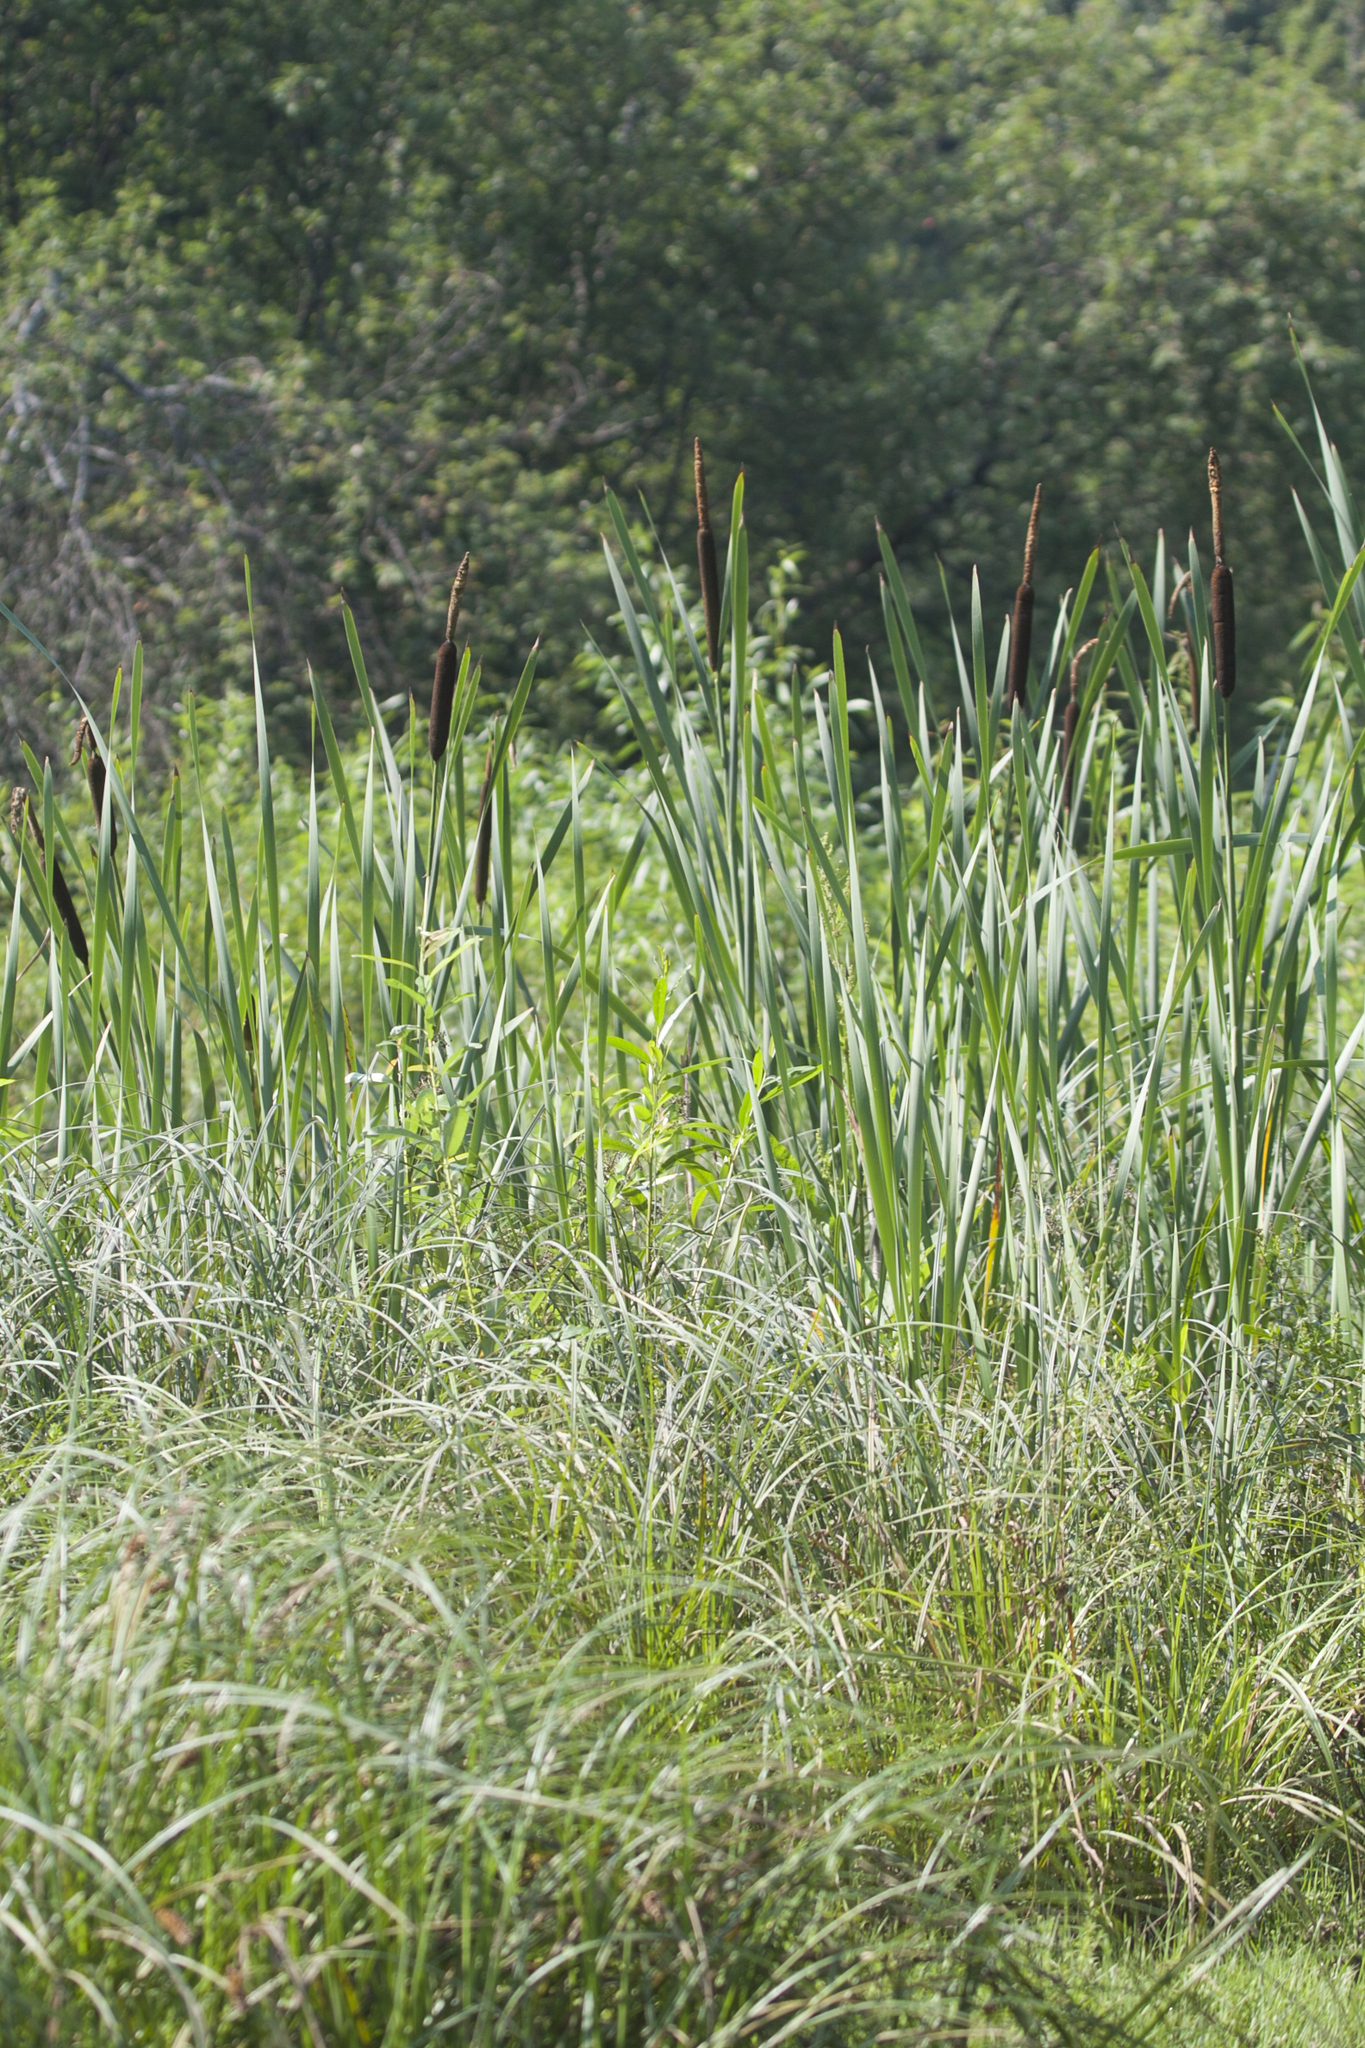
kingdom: Plantae
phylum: Tracheophyta
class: Liliopsida
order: Poales
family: Typhaceae
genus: Typha
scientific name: Typha latifolia
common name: Broadleaf cattail
